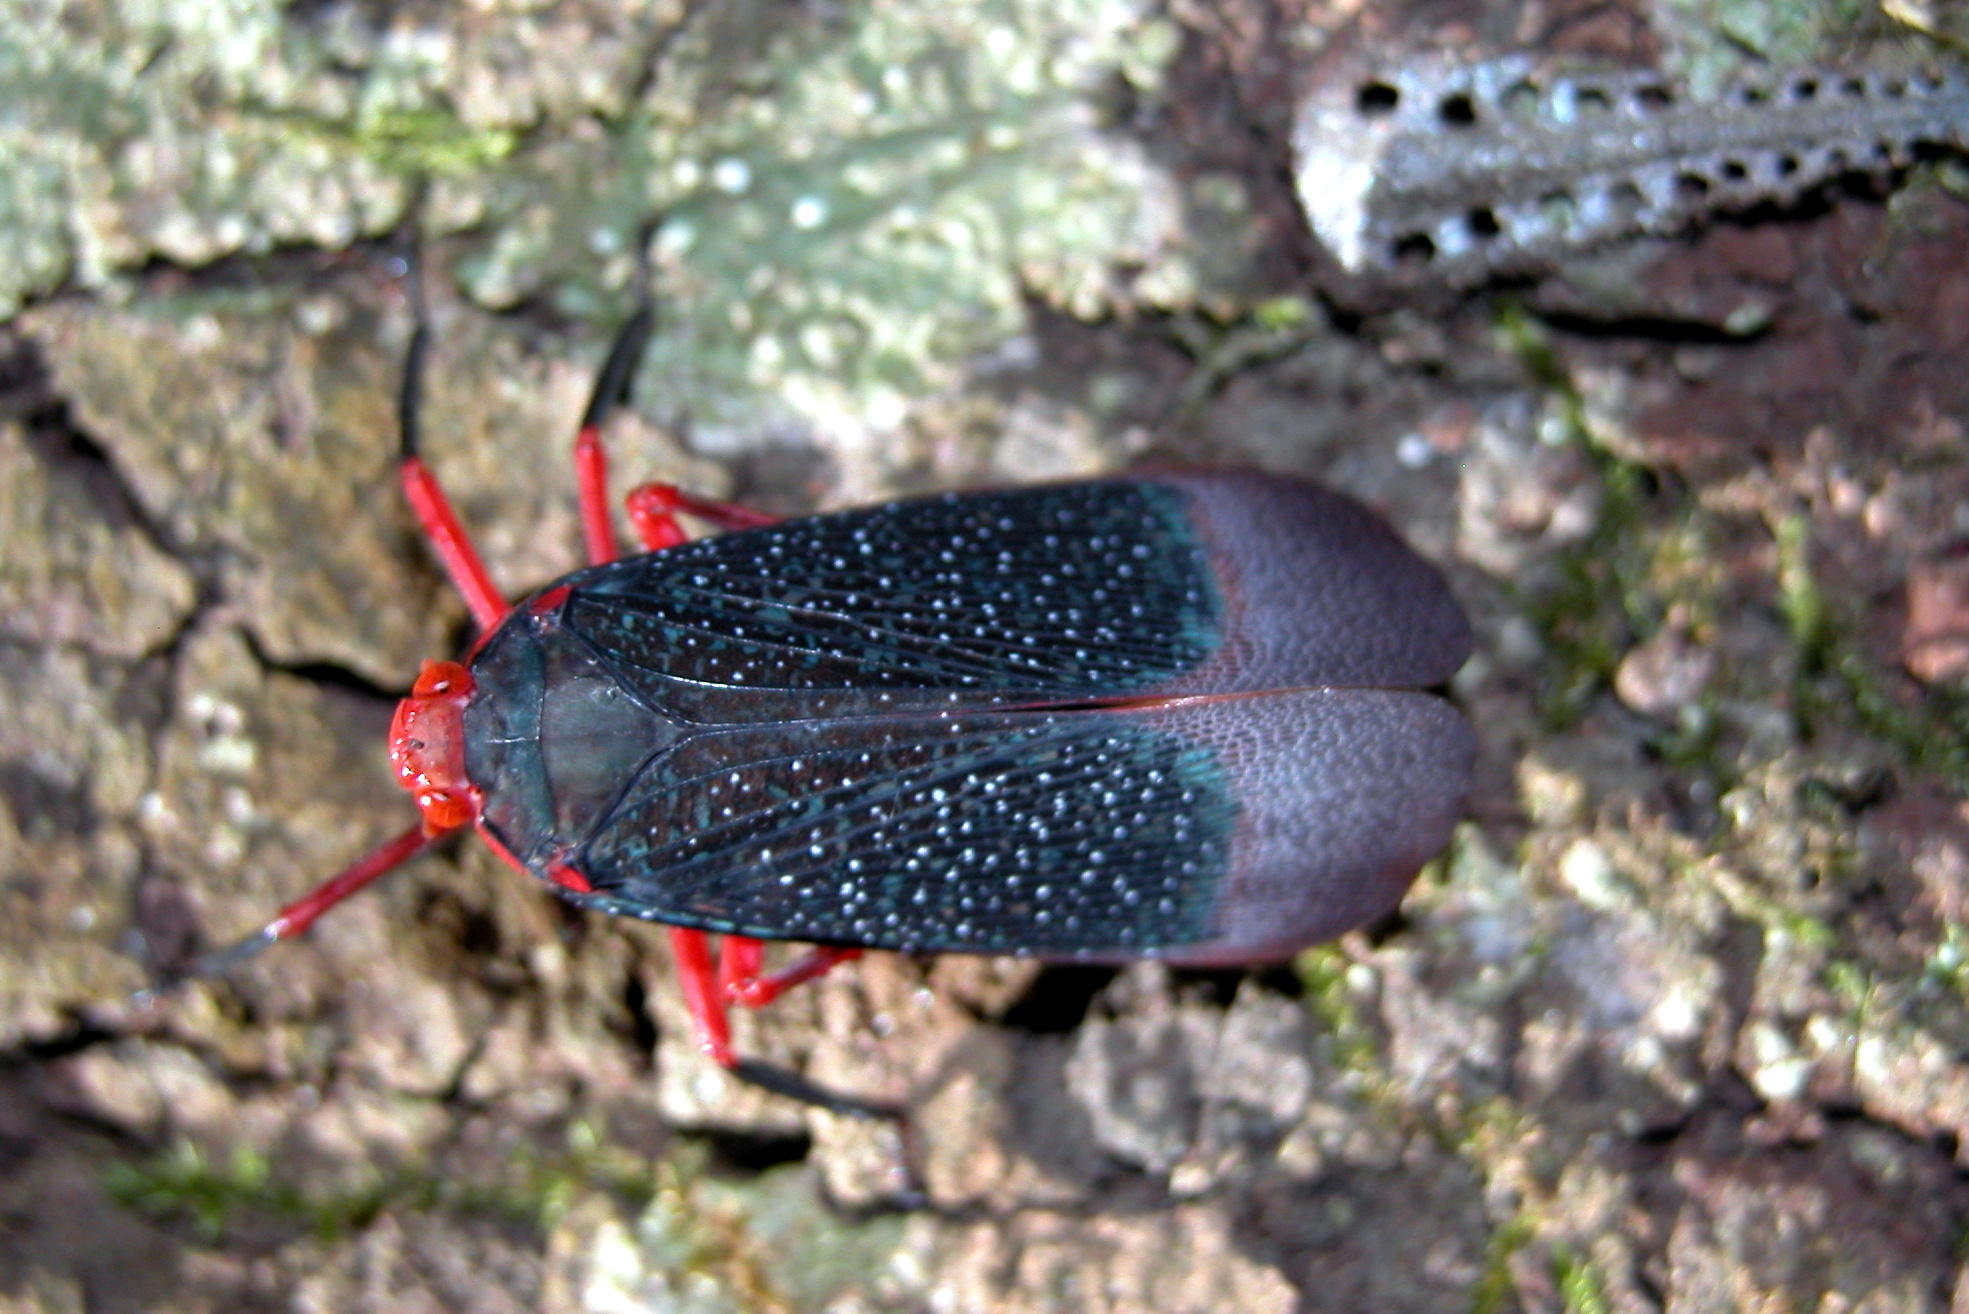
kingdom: Animalia
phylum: Arthropoda
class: Insecta
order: Hemiptera
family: Fulgoridae
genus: Kalidasa
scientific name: Kalidasa lanata
